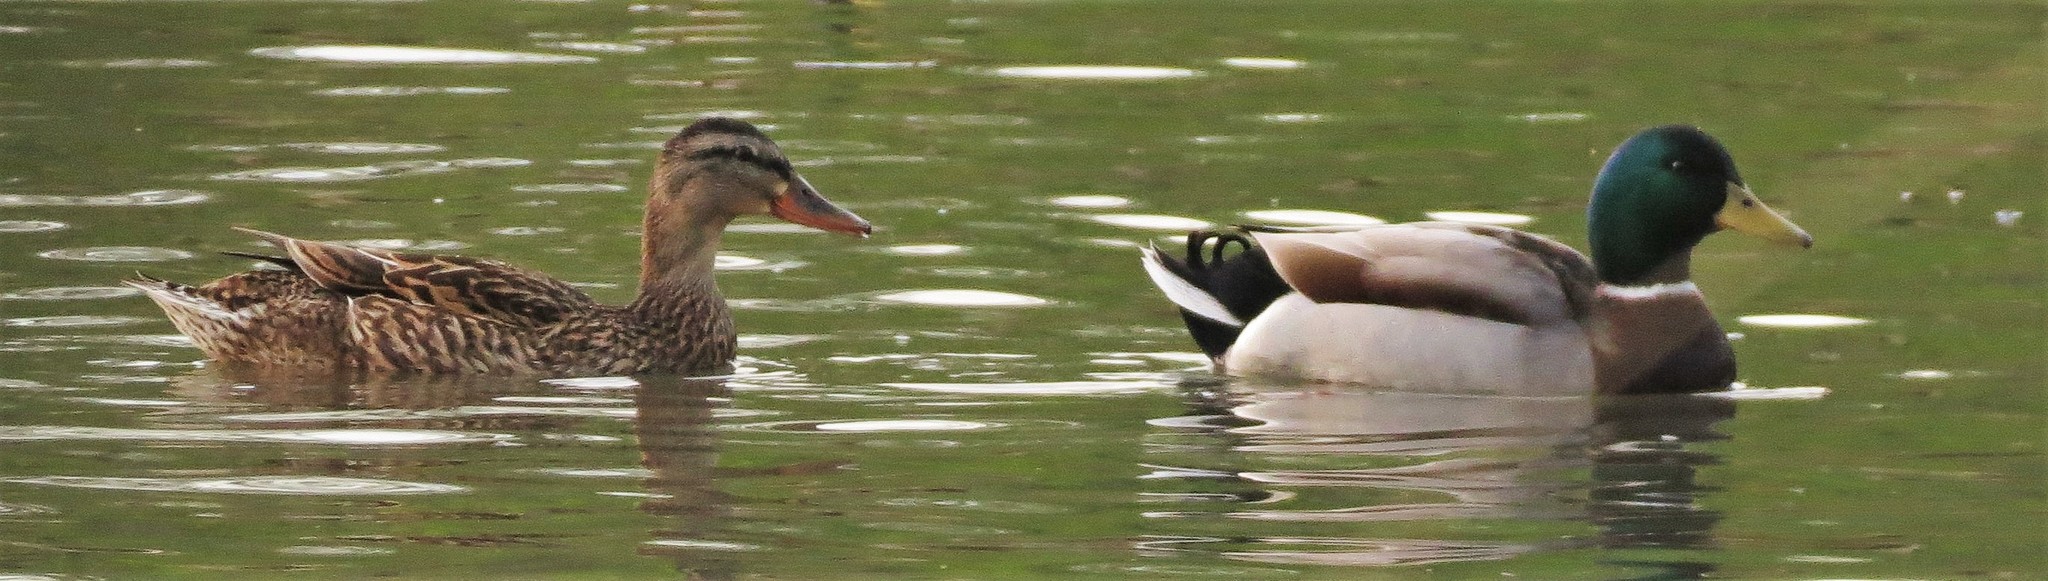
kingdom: Animalia
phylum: Chordata
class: Aves
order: Anseriformes
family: Anatidae
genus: Anas
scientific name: Anas platyrhynchos
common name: Mallard
